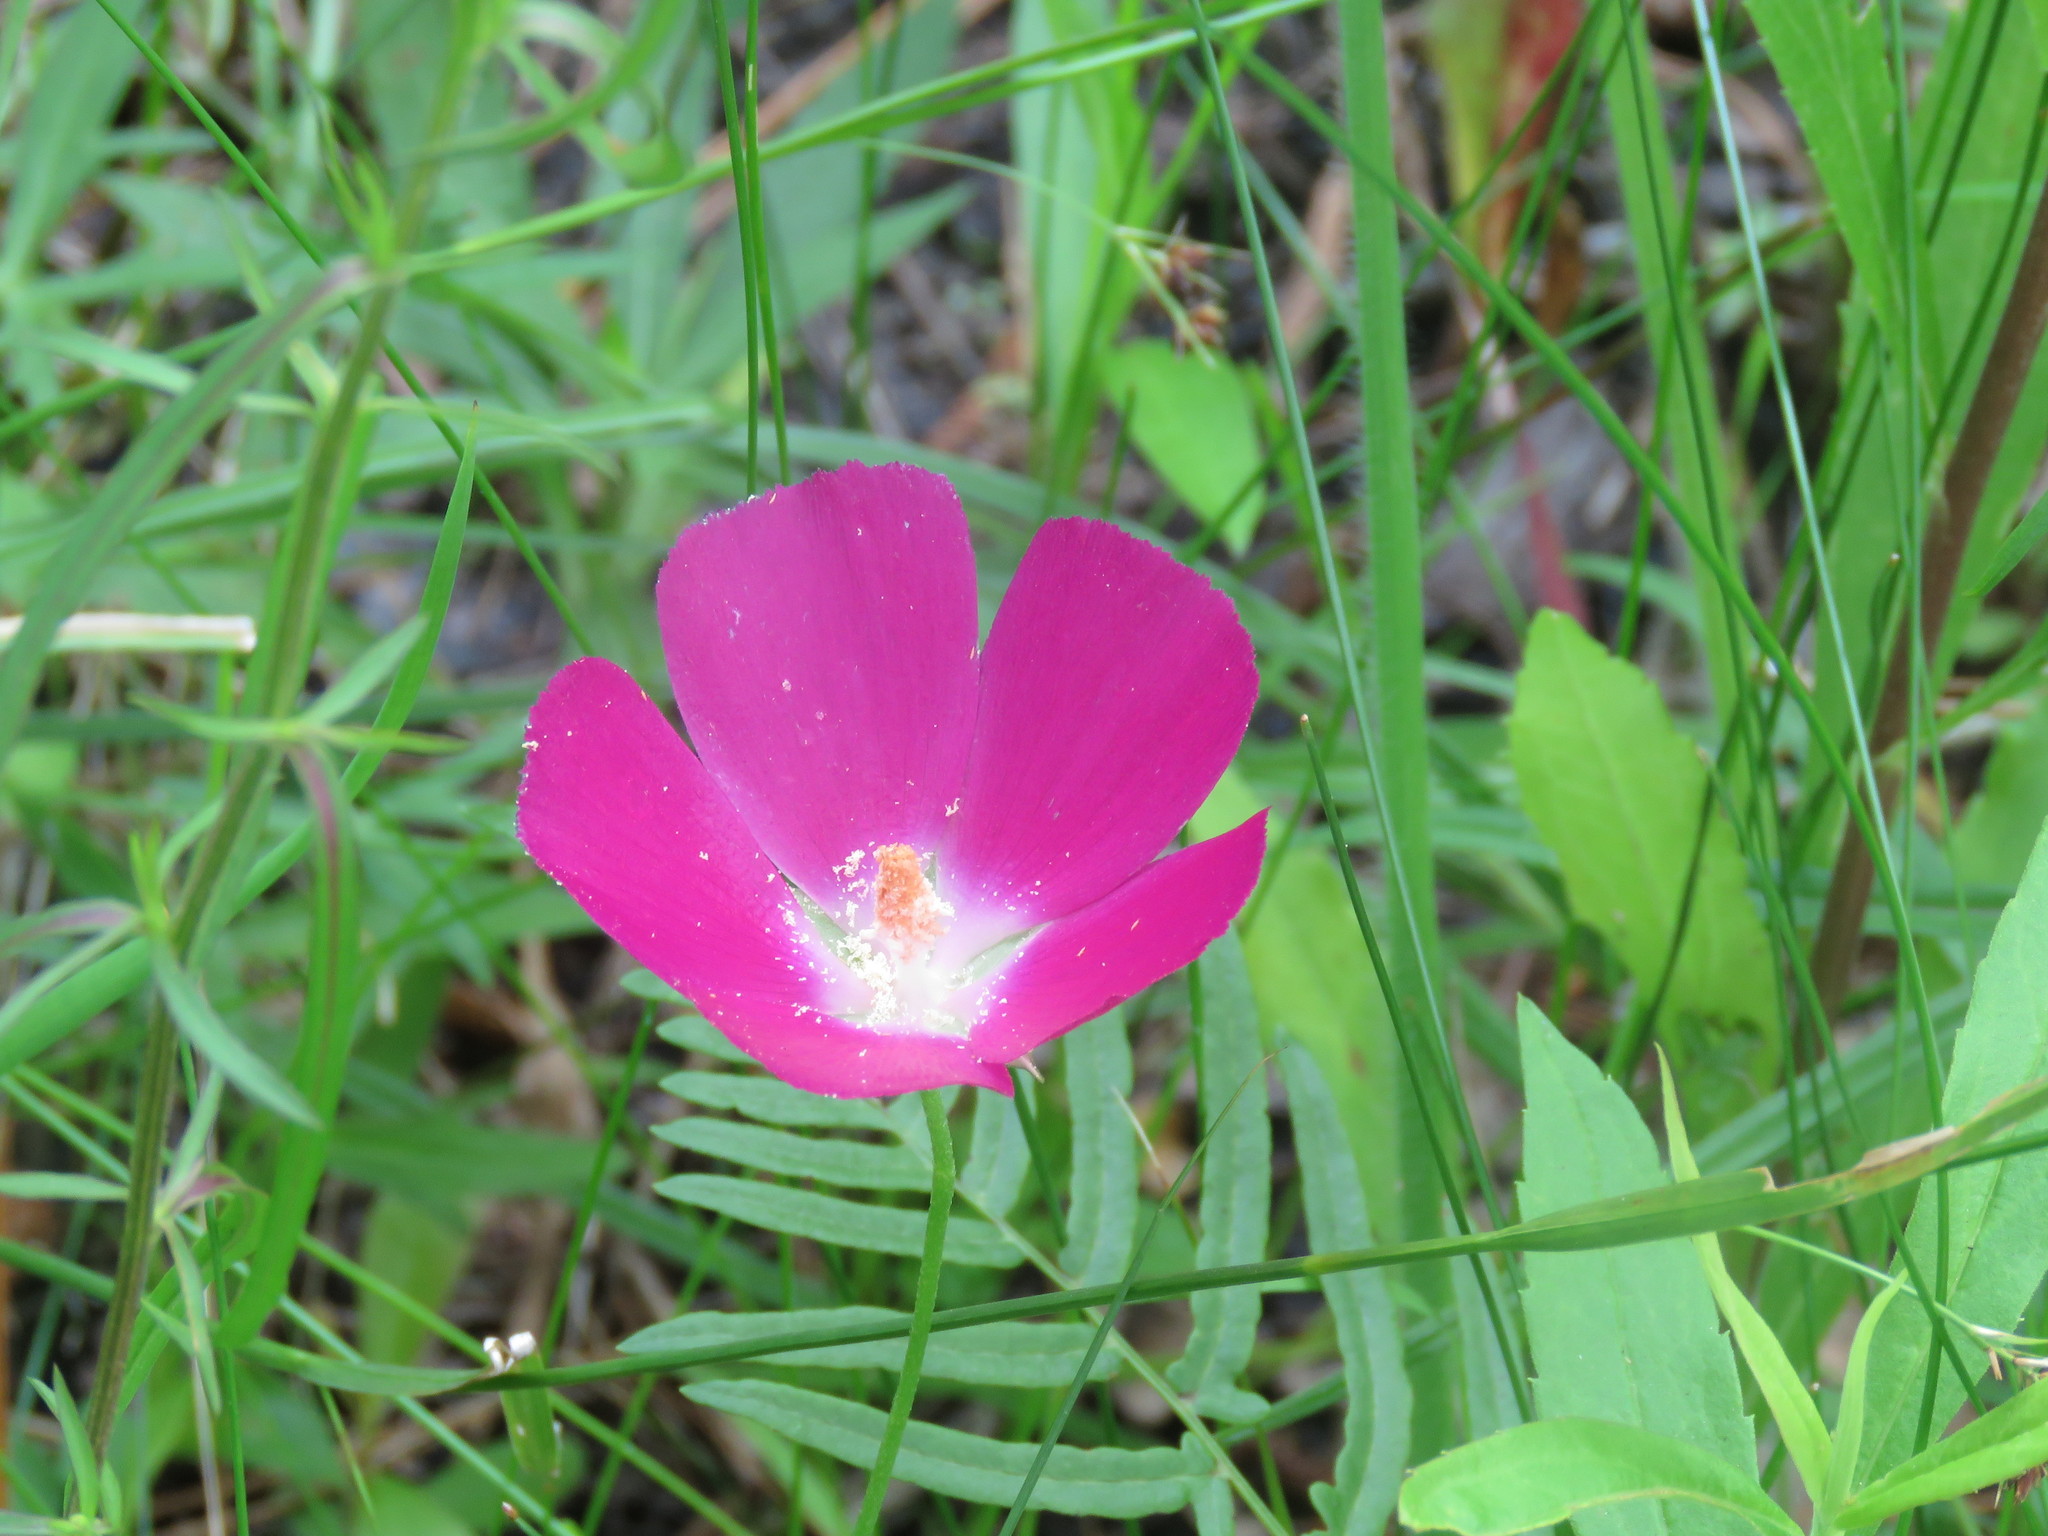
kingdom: Plantae
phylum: Tracheophyta
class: Magnoliopsida
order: Malvales
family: Malvaceae
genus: Callirhoe
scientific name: Callirhoe involucrata
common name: Purple poppy-mallow
